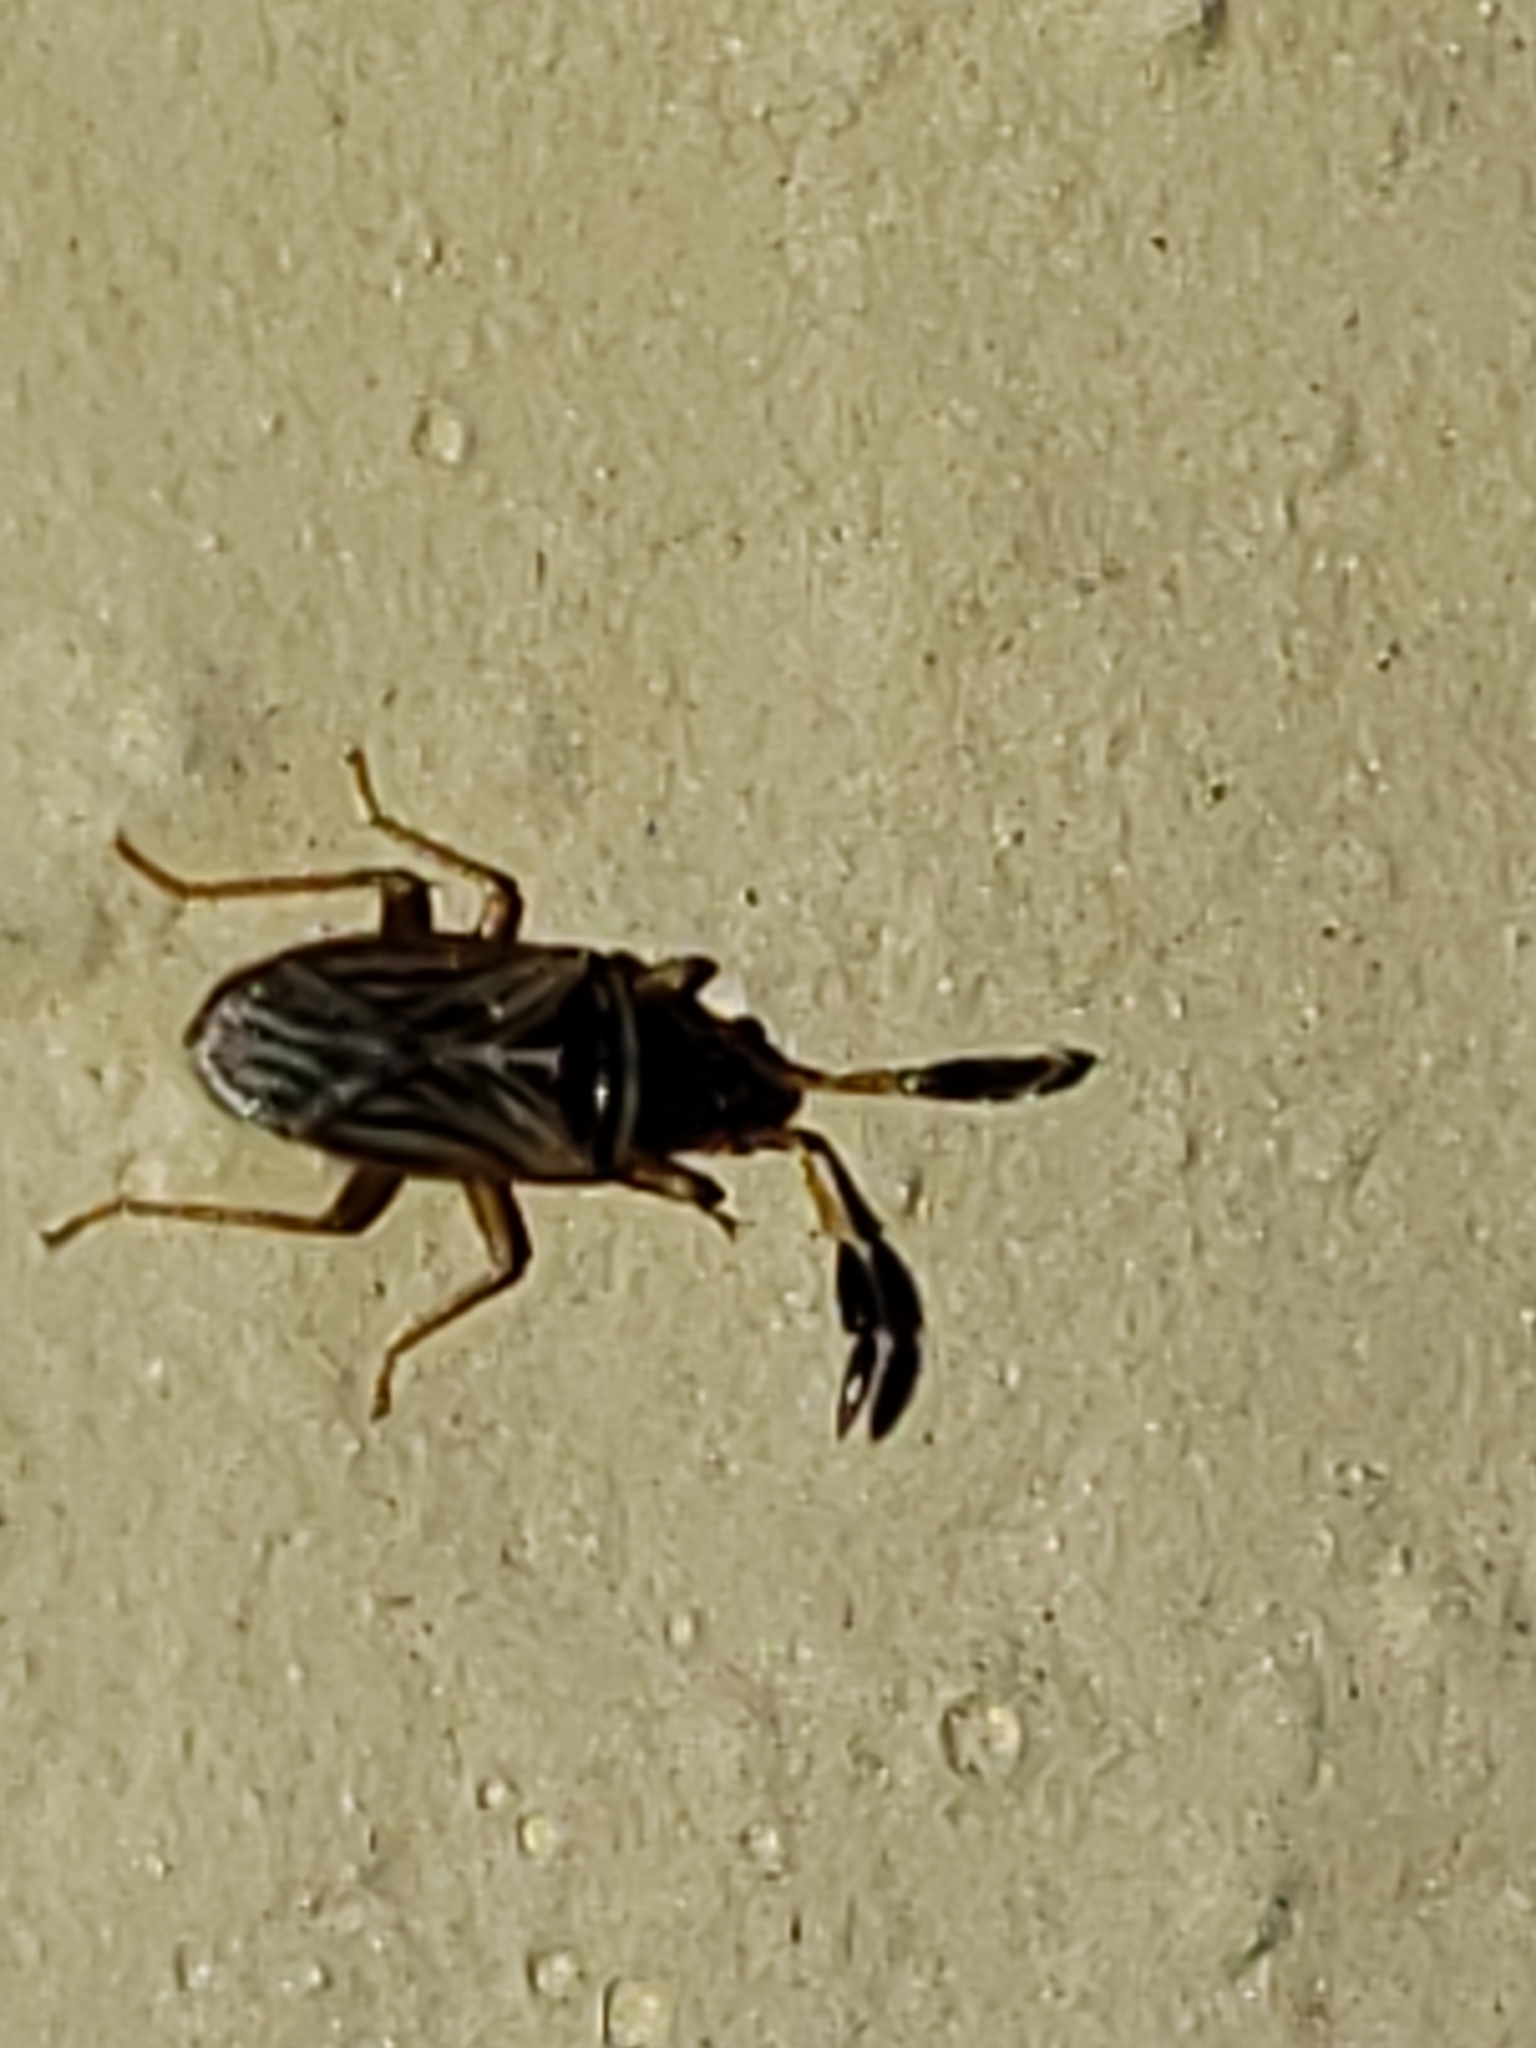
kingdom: Animalia
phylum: Arthropoda
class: Insecta
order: Hemiptera
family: Rhyparochromidae
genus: Ptochiomera
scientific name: Ptochiomera nodosa
